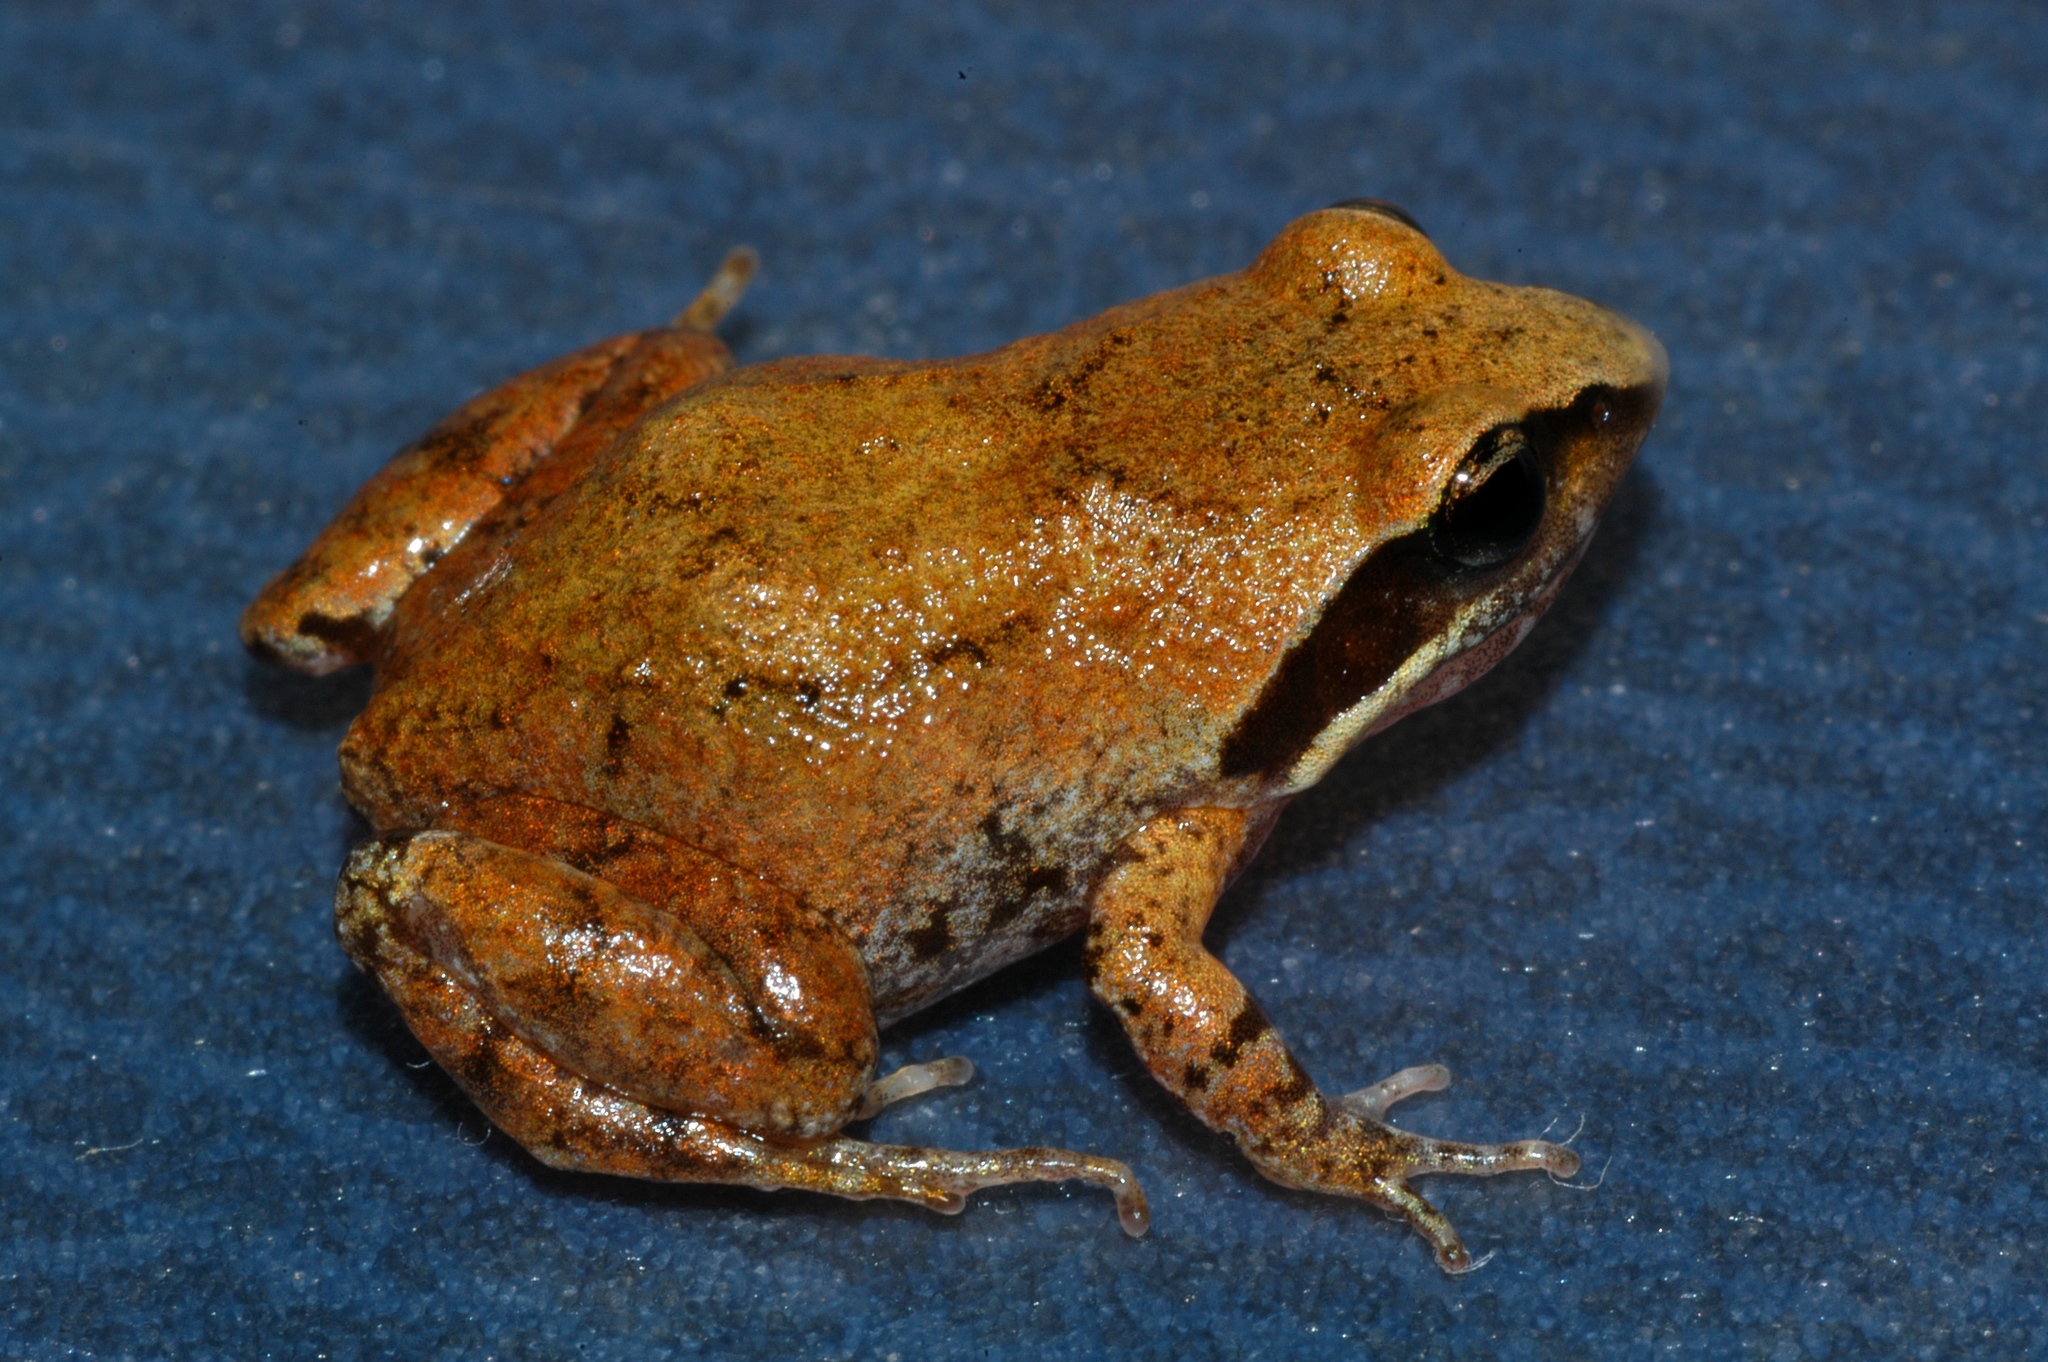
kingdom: Animalia
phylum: Chordata
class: Amphibia
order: Anura
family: Pyxicephalidae
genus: Anhydrophryne
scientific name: Anhydrophryne rattrayi
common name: Rattray's frog
